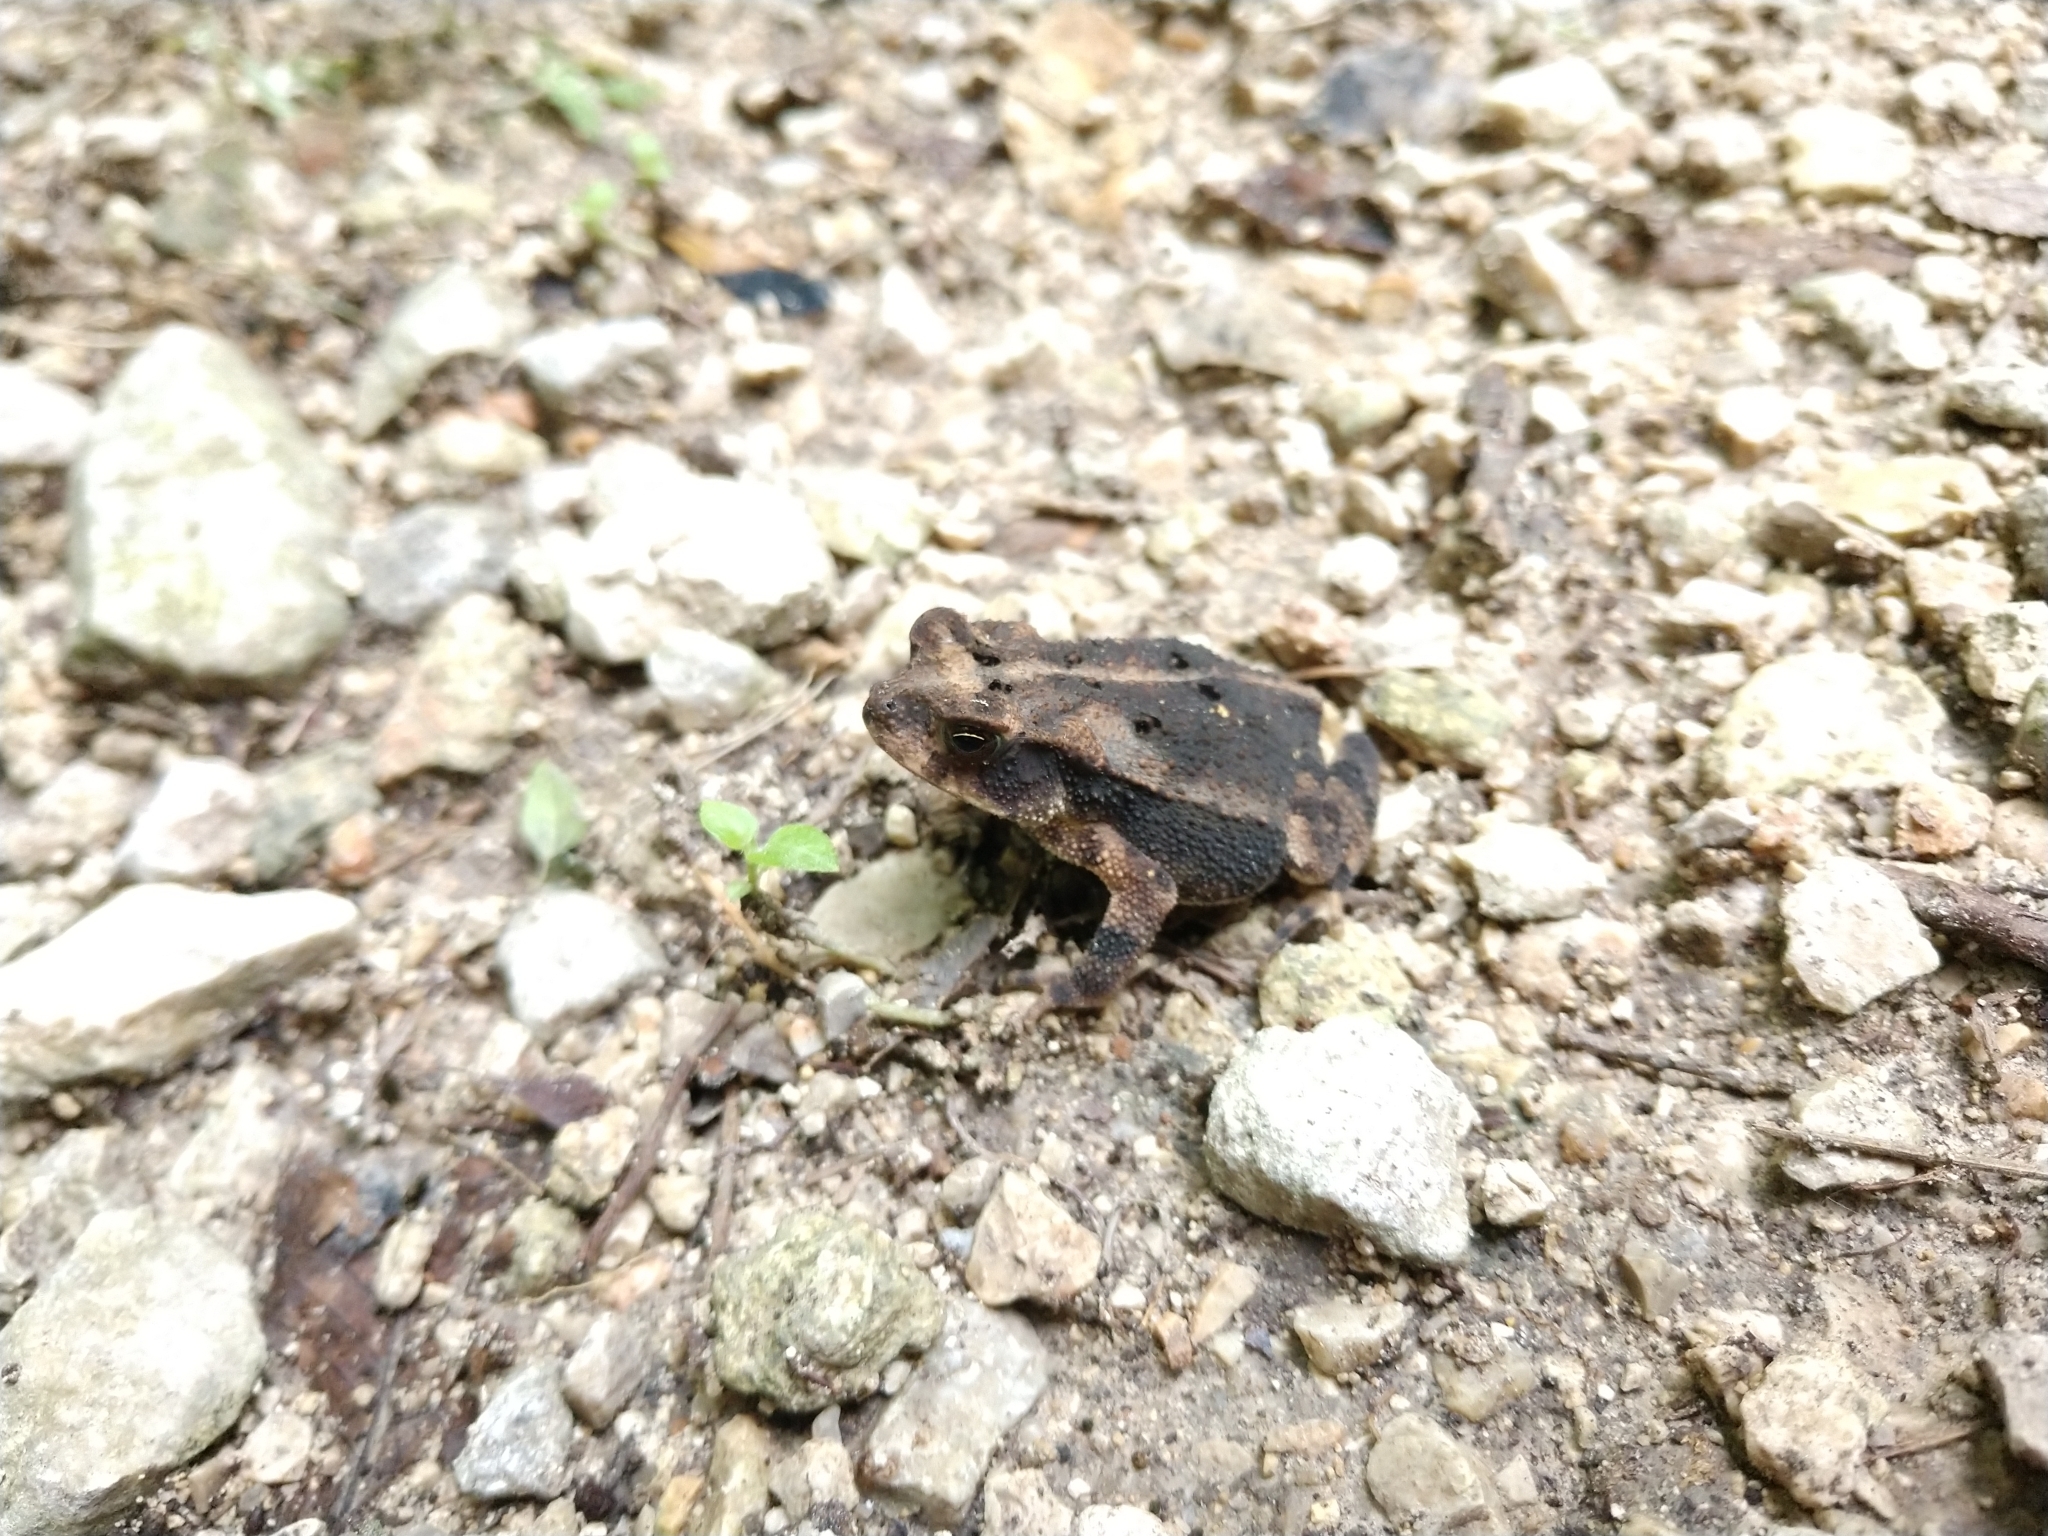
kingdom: Animalia
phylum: Chordata
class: Amphibia
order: Anura
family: Bufonidae
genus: Incilius
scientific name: Incilius nebulifer
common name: Gulf coast toad
